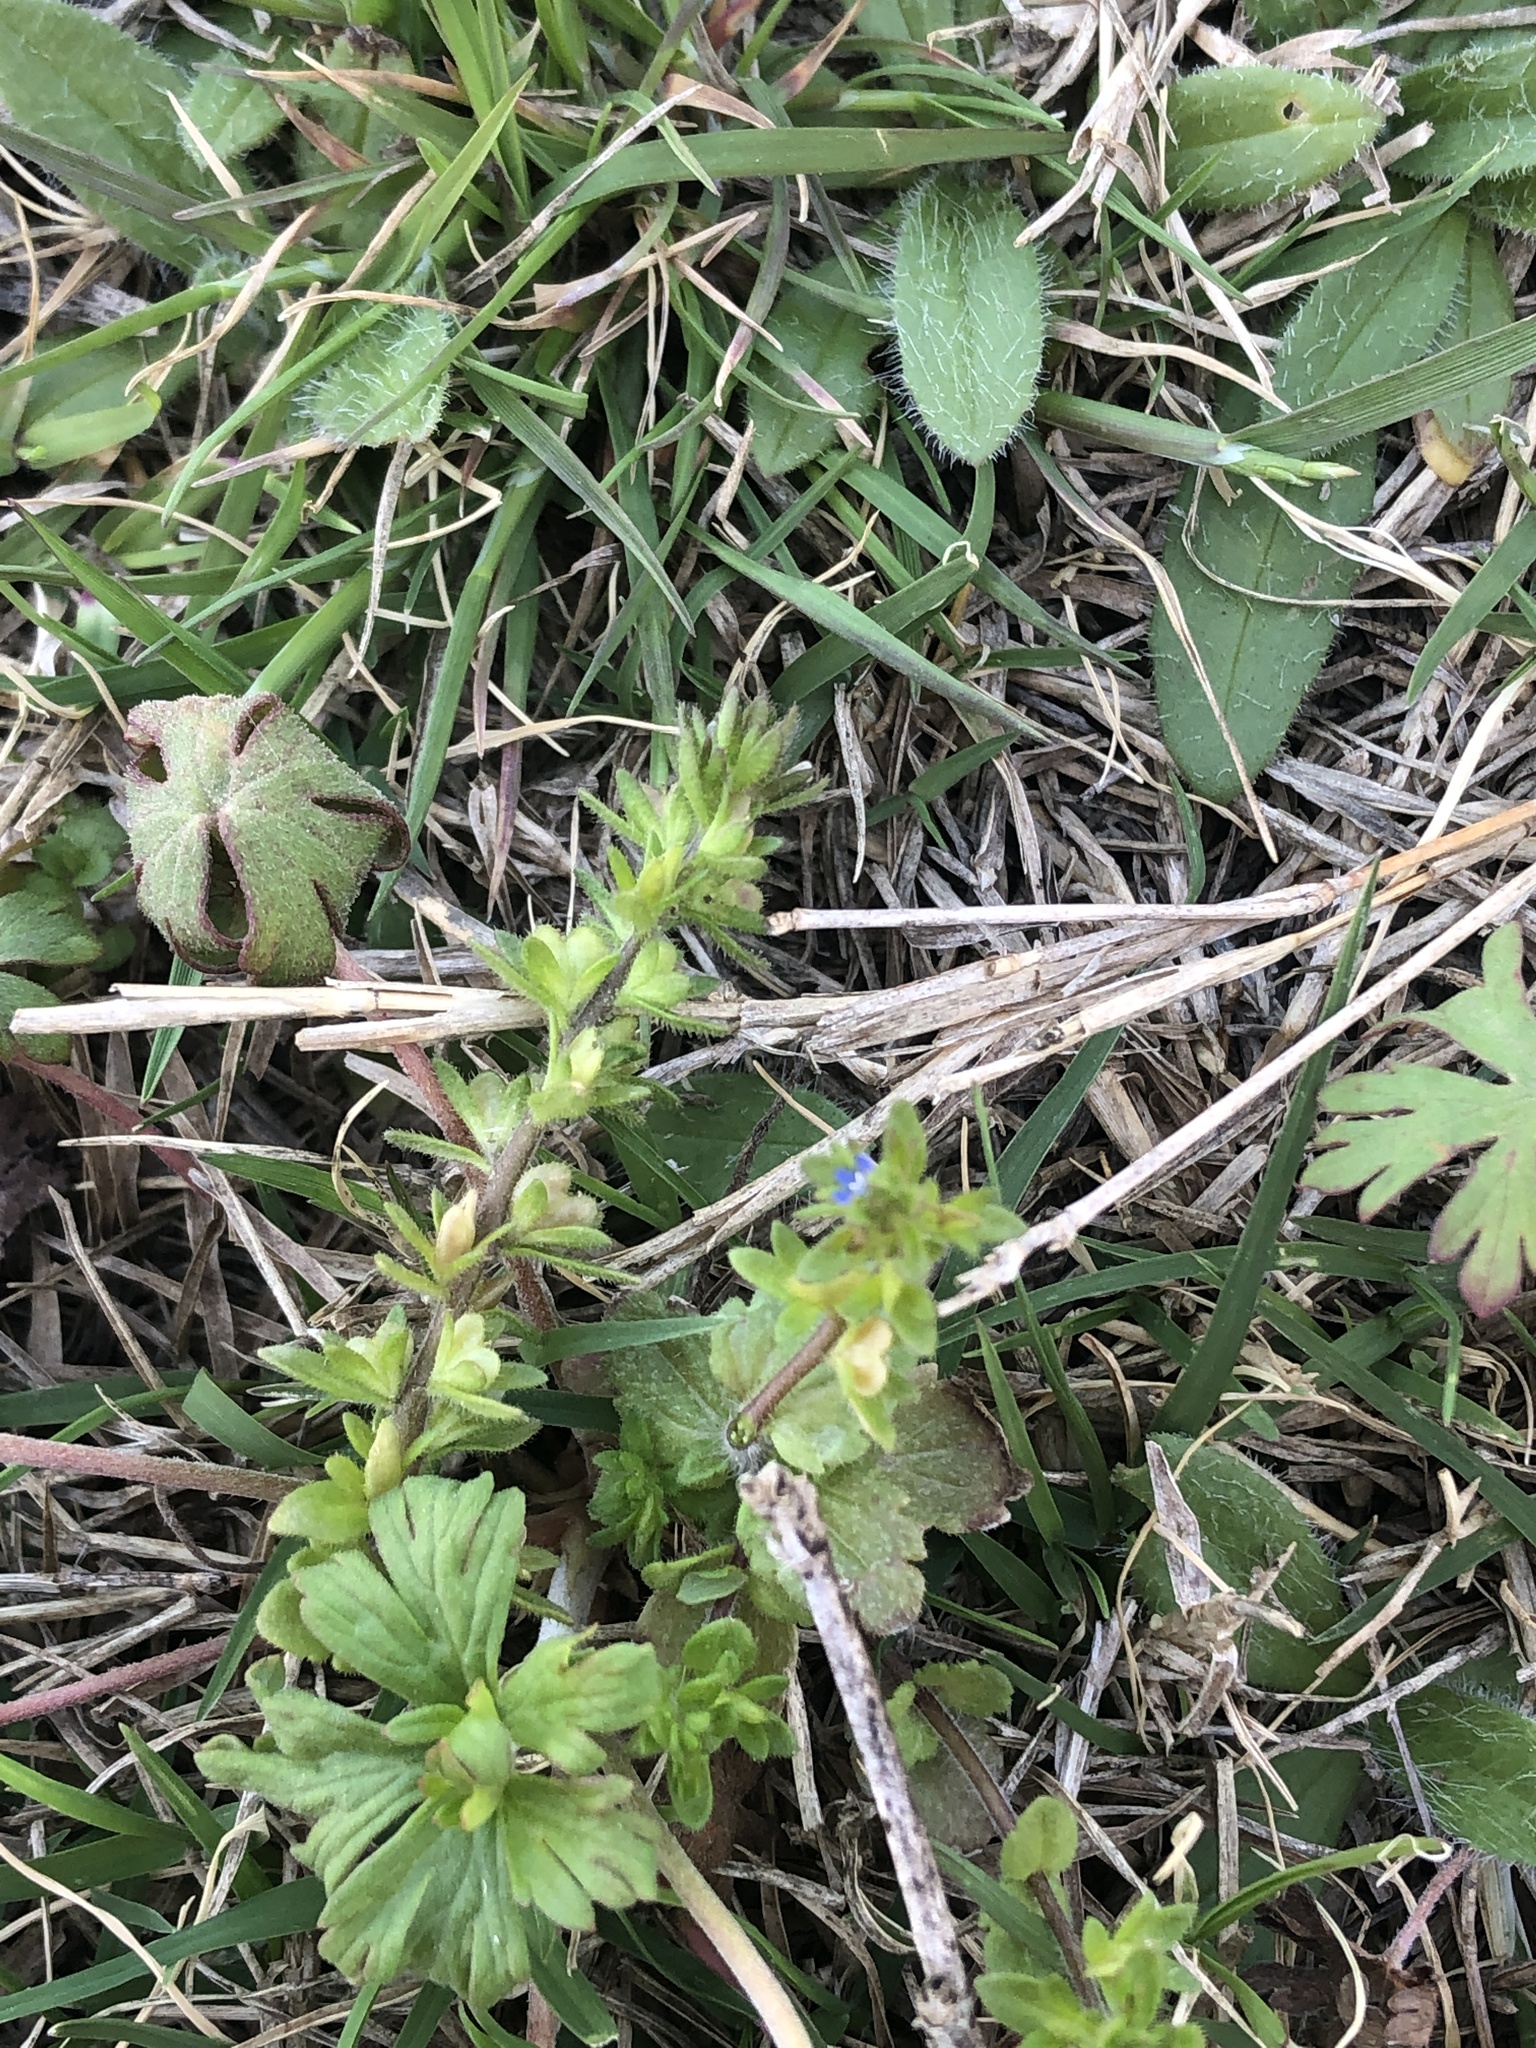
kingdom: Plantae
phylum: Tracheophyta
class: Magnoliopsida
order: Lamiales
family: Plantaginaceae
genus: Veronica
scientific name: Veronica arvensis
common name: Corn speedwell
